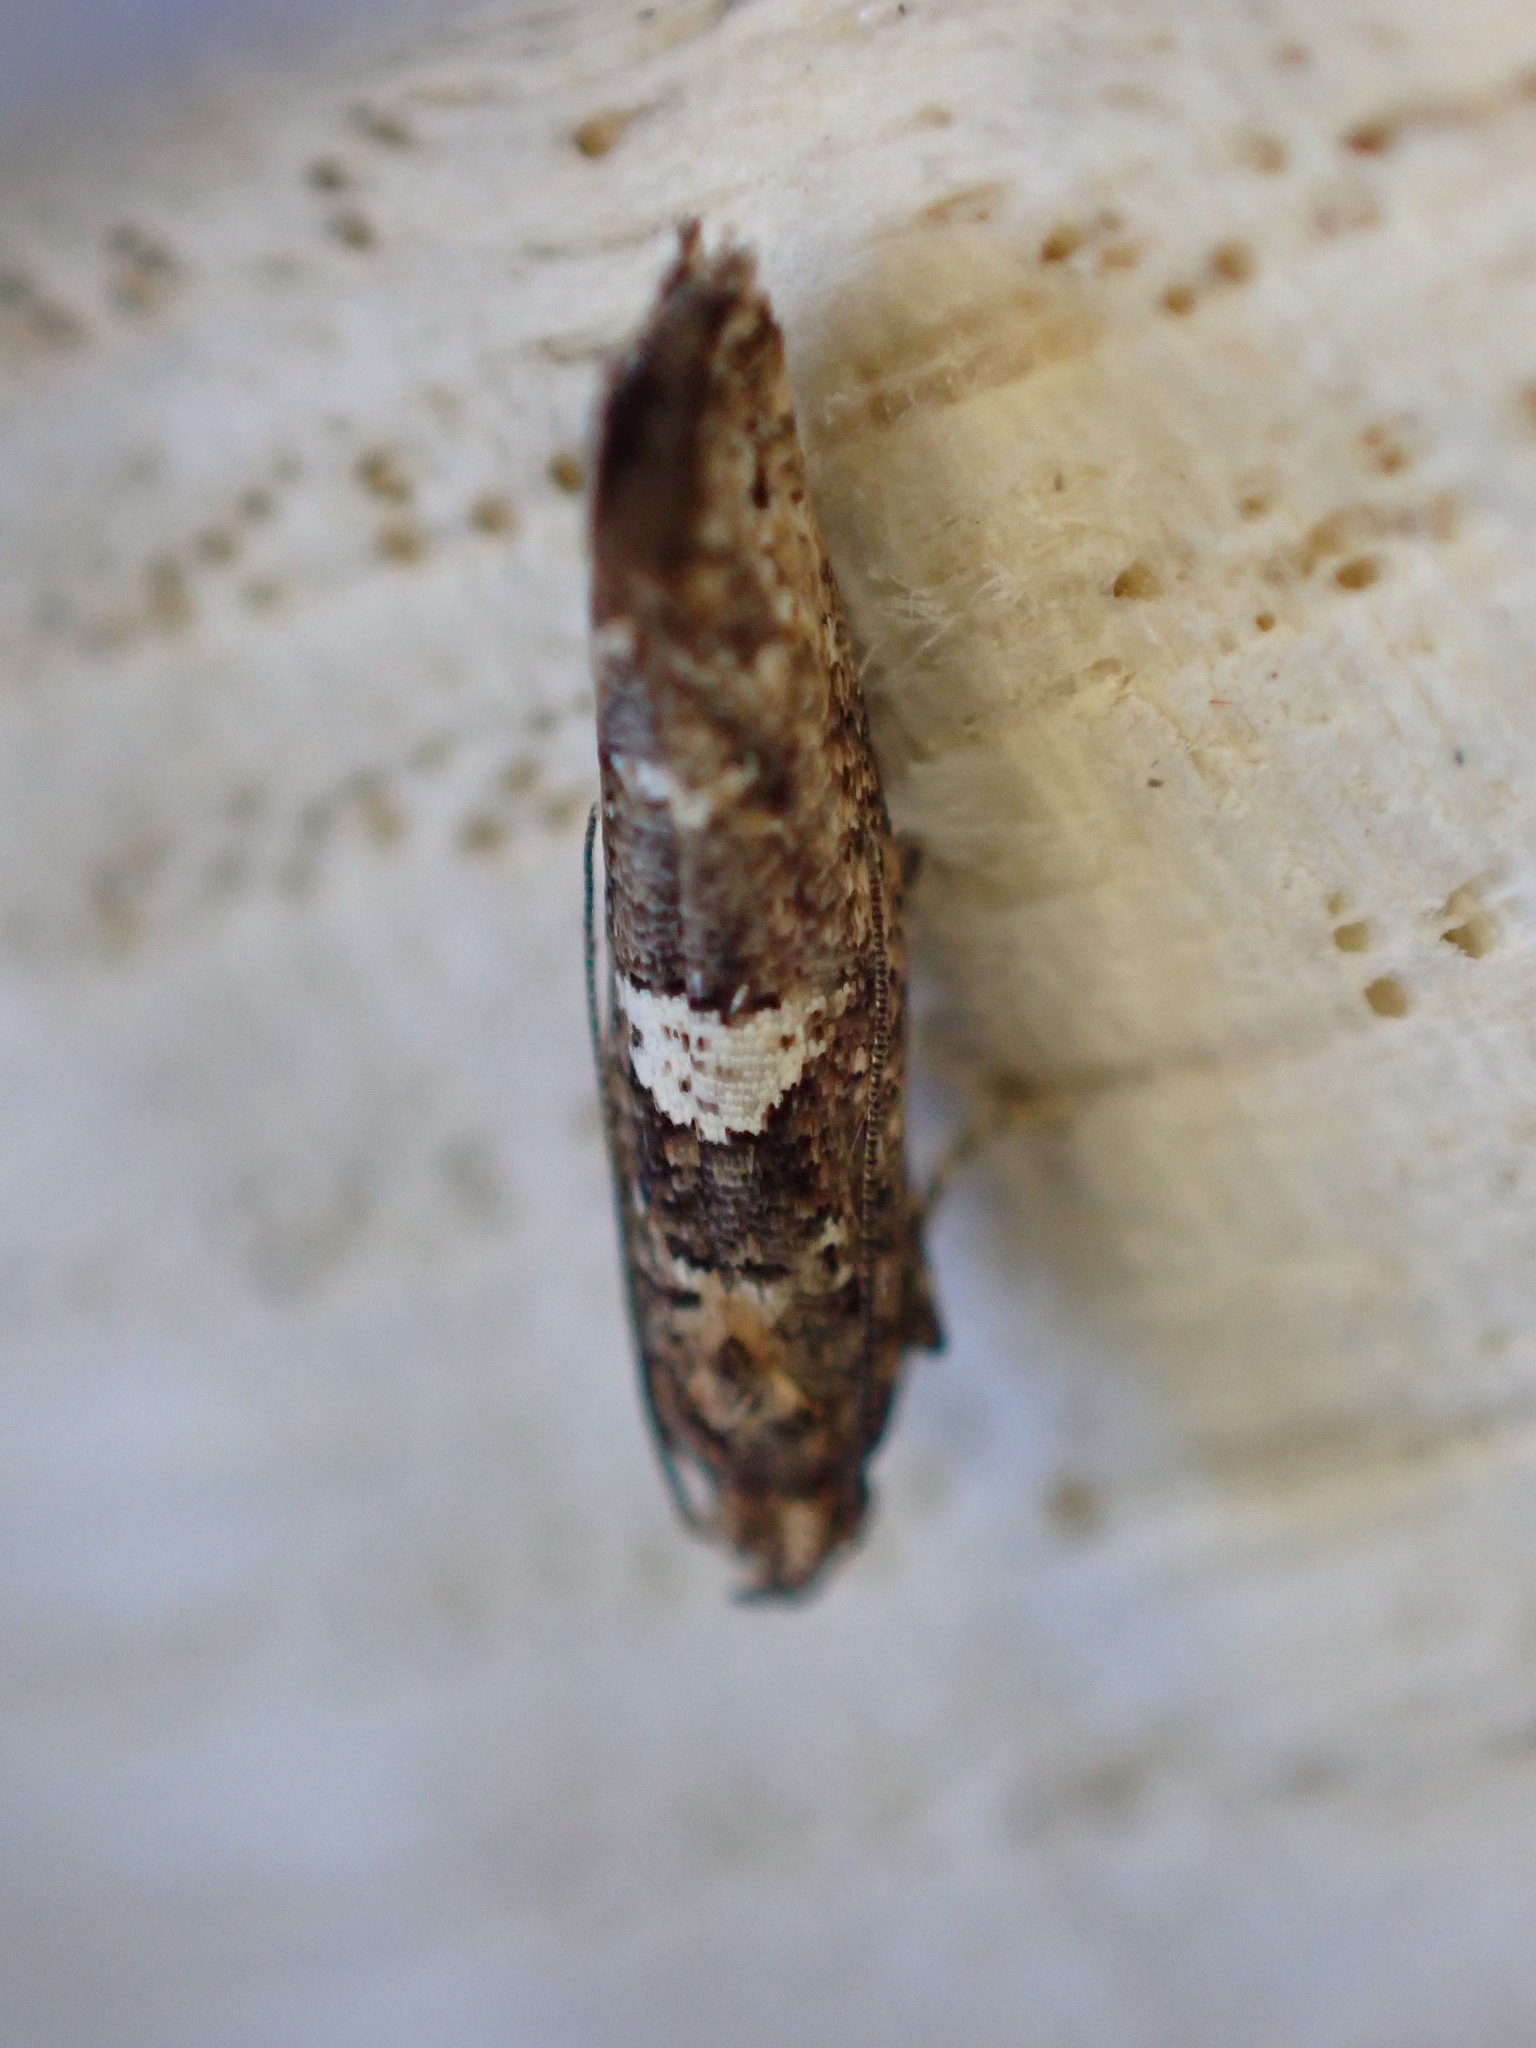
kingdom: Animalia
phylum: Arthropoda
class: Insecta
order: Lepidoptera
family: Glyphipterigidae
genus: Acrolepia
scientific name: Acrolepia assectella
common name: Onion leaf miner
